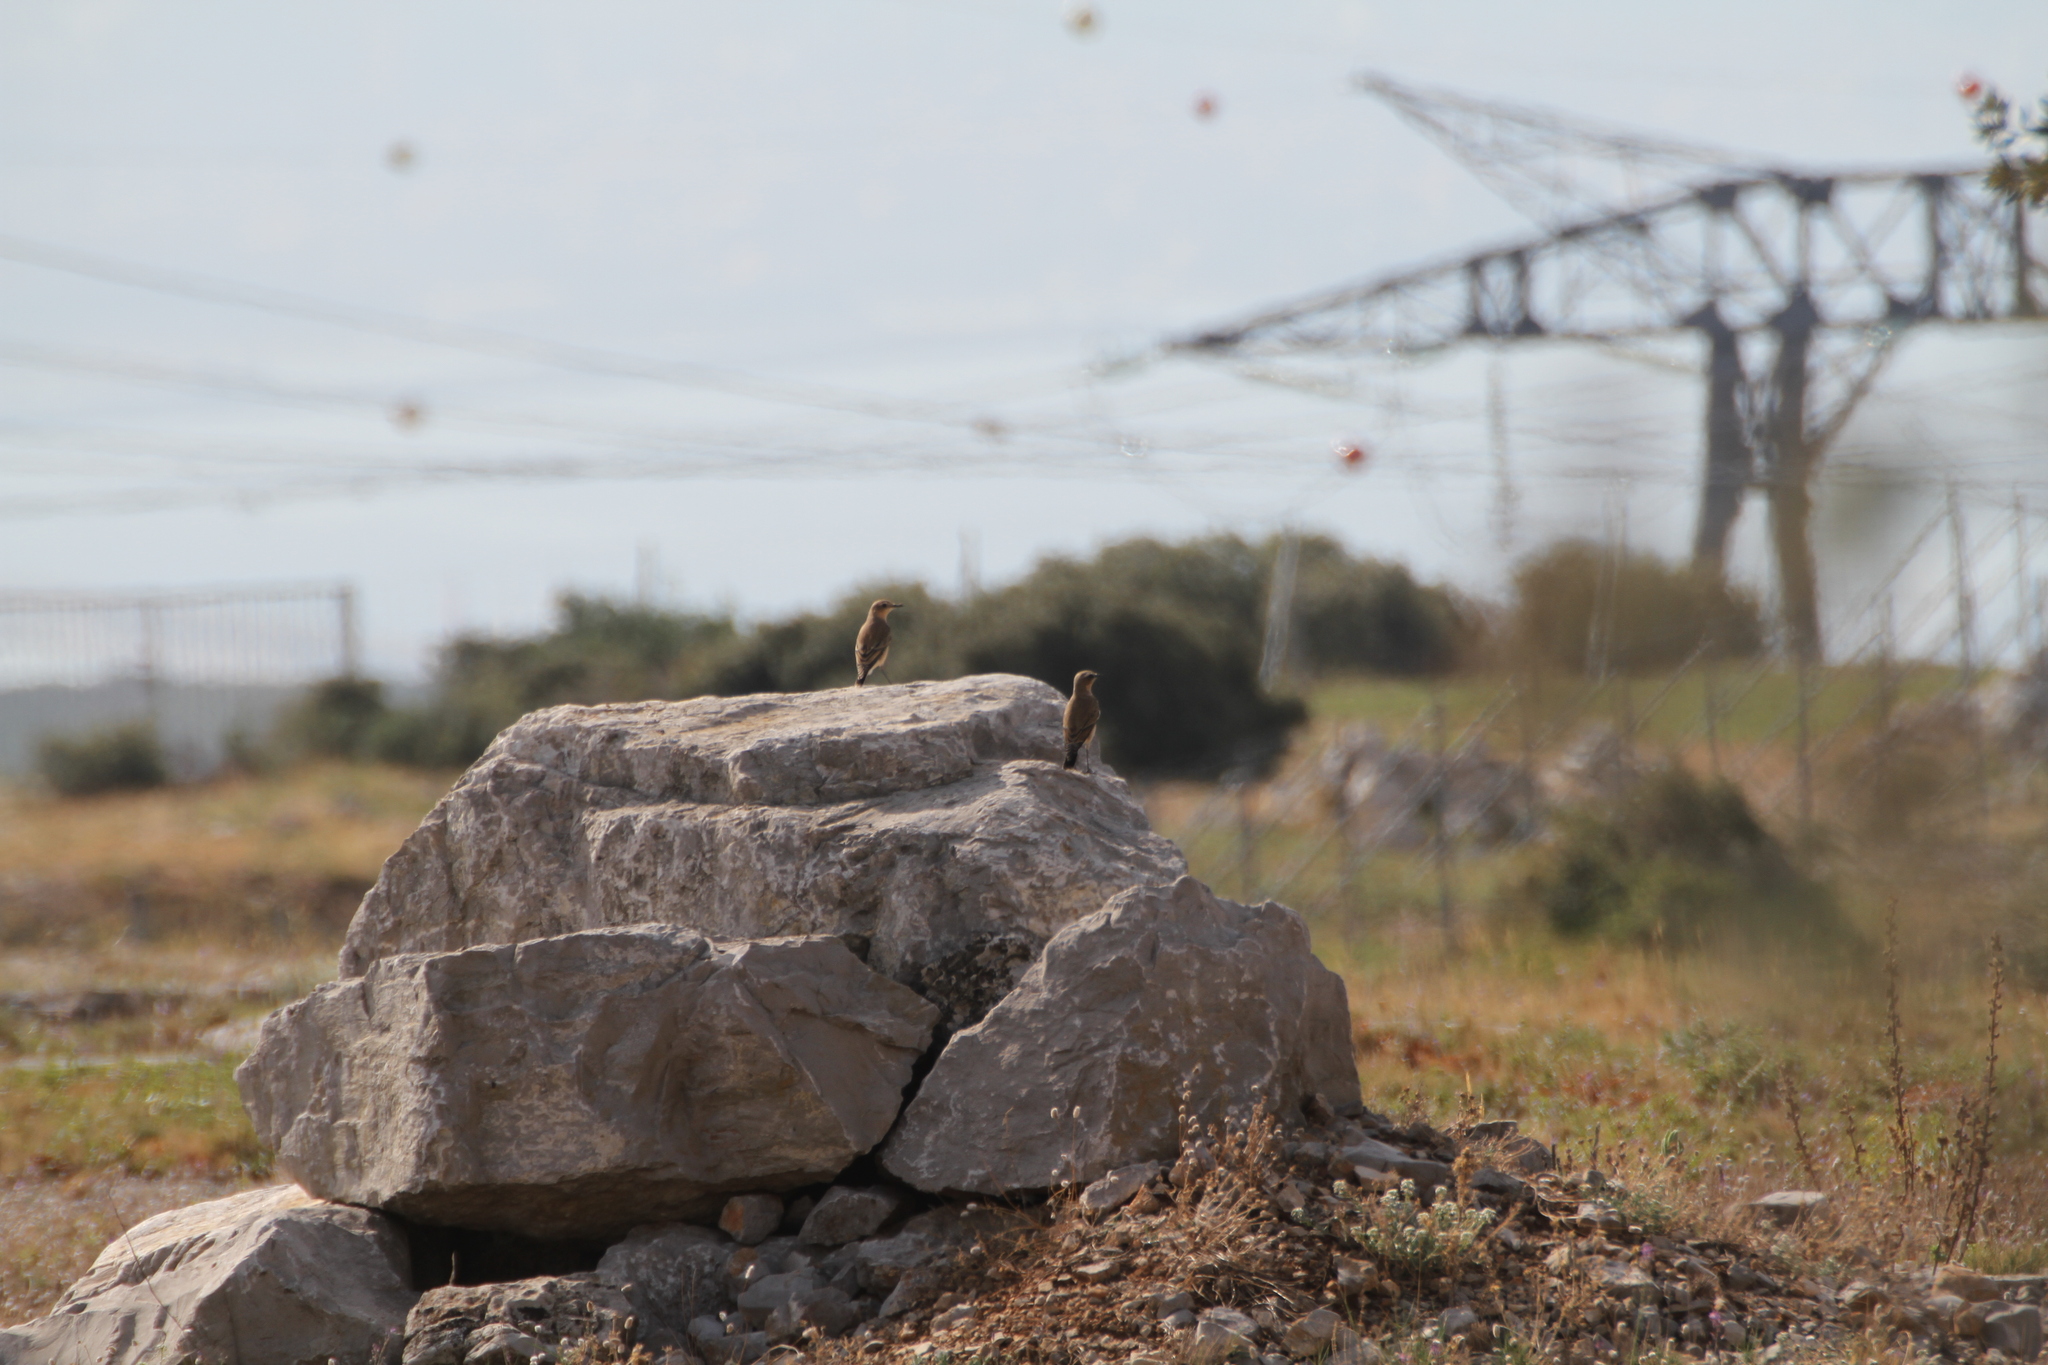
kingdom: Animalia
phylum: Chordata
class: Aves
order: Passeriformes
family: Muscicapidae
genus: Oenanthe
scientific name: Oenanthe oenanthe
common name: Northern wheatear
